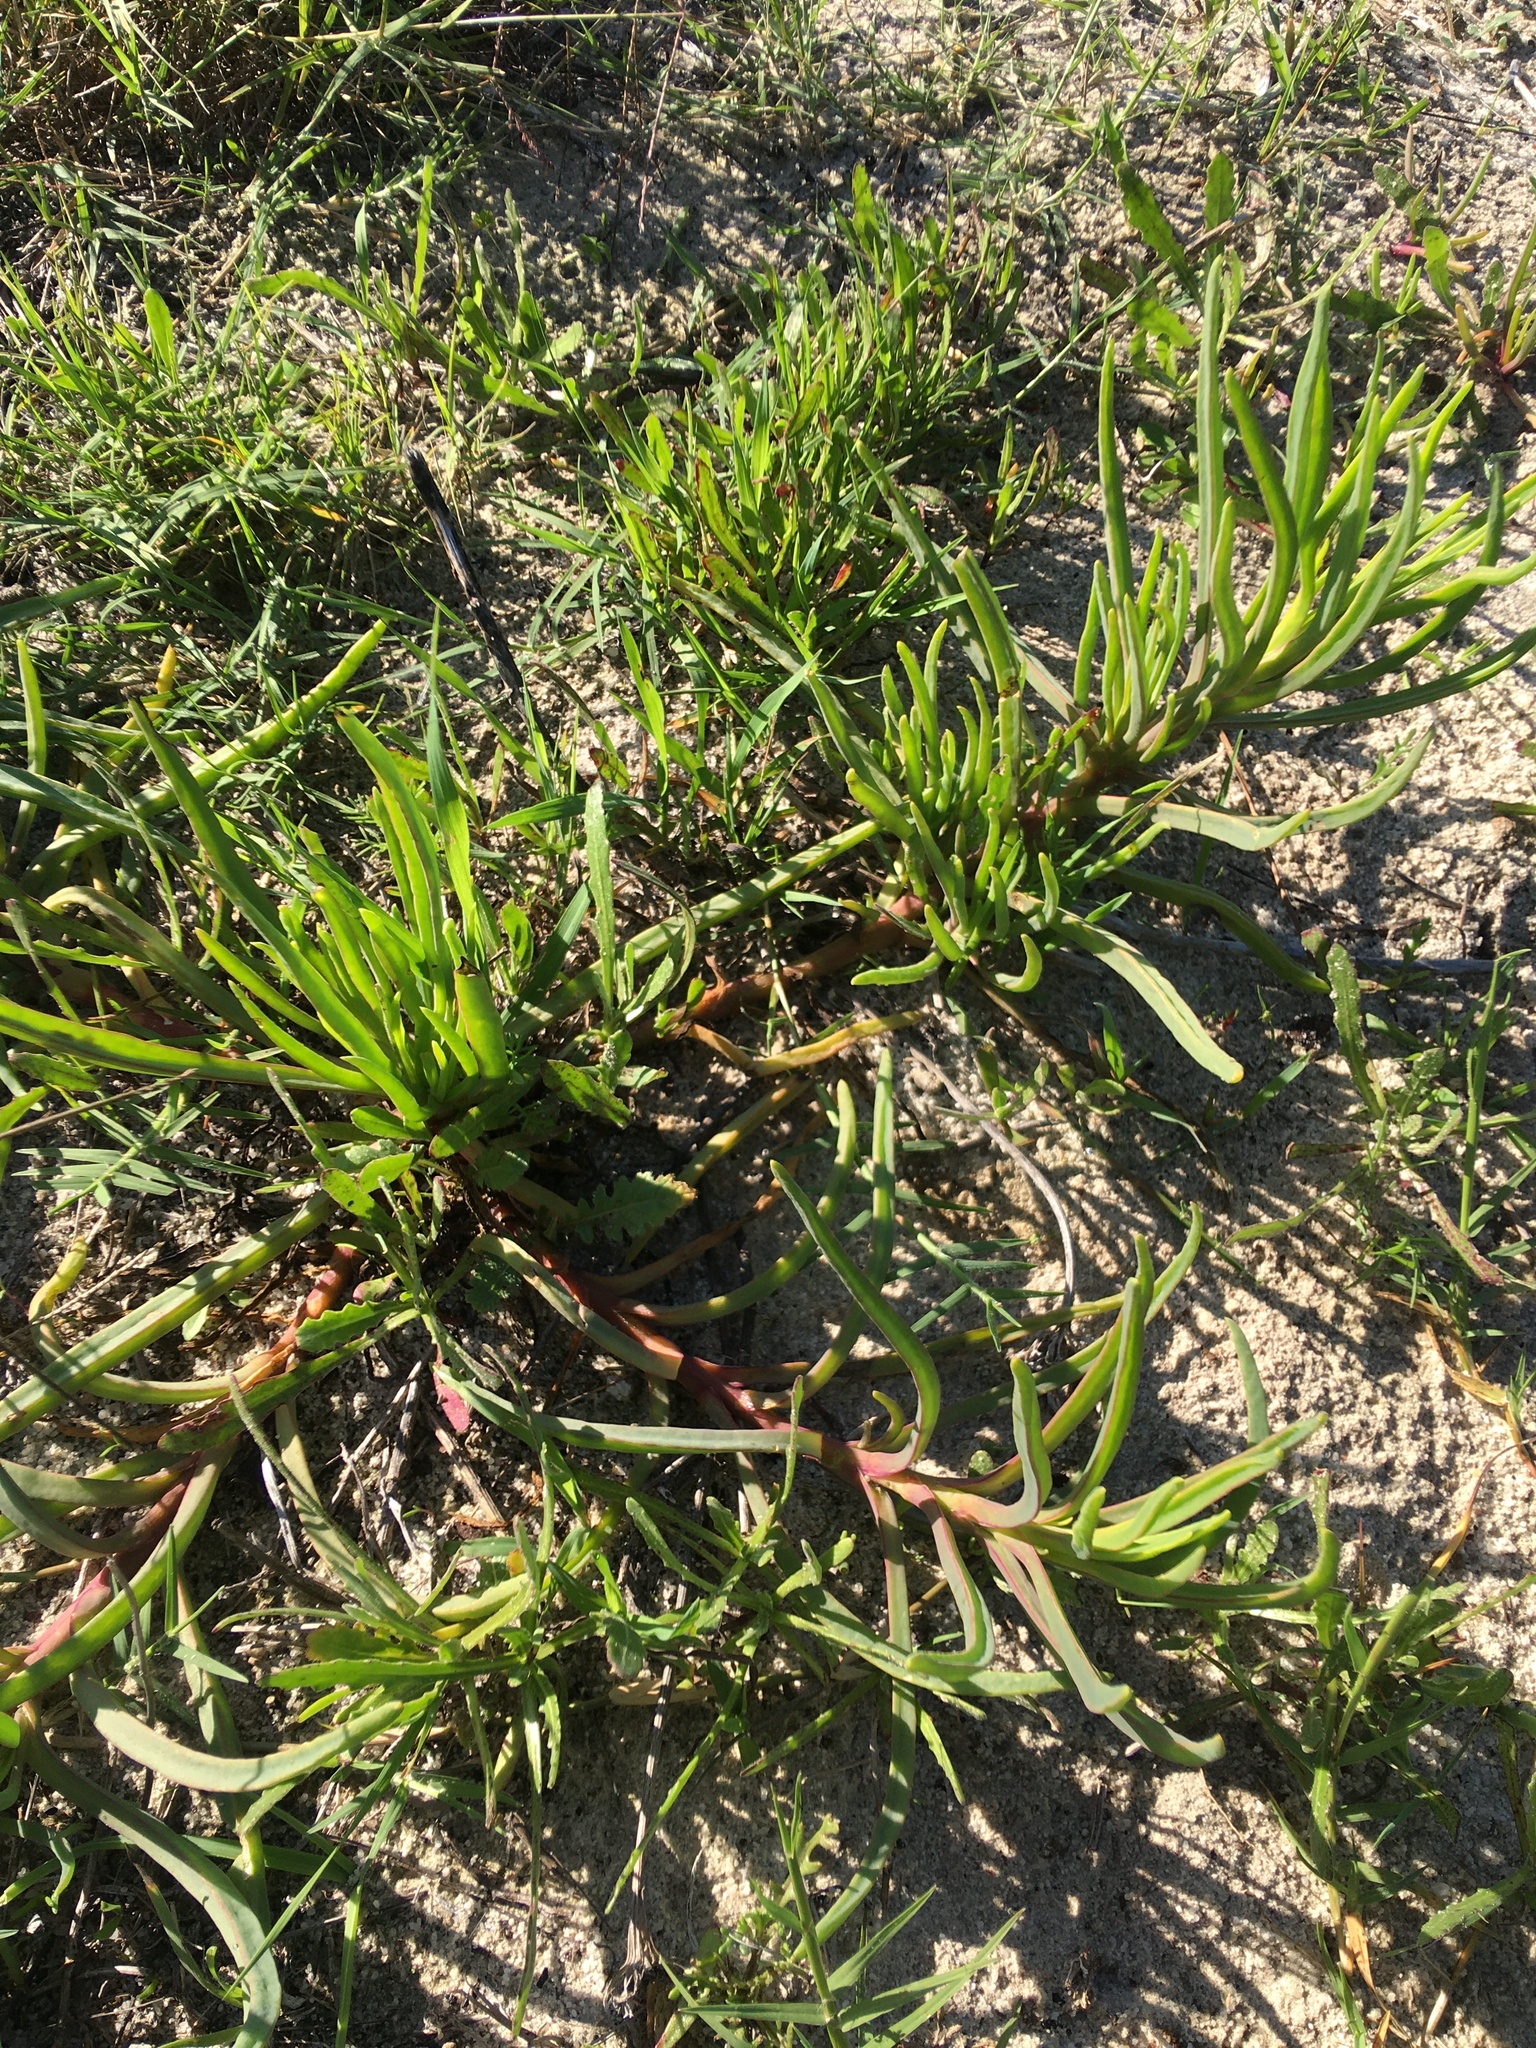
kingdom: Plantae
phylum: Tracheophyta
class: Magnoliopsida
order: Caryophyllales
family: Aizoaceae
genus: Conicosia
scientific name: Conicosia pugioniformis
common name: Narrow-leaved iceplant
